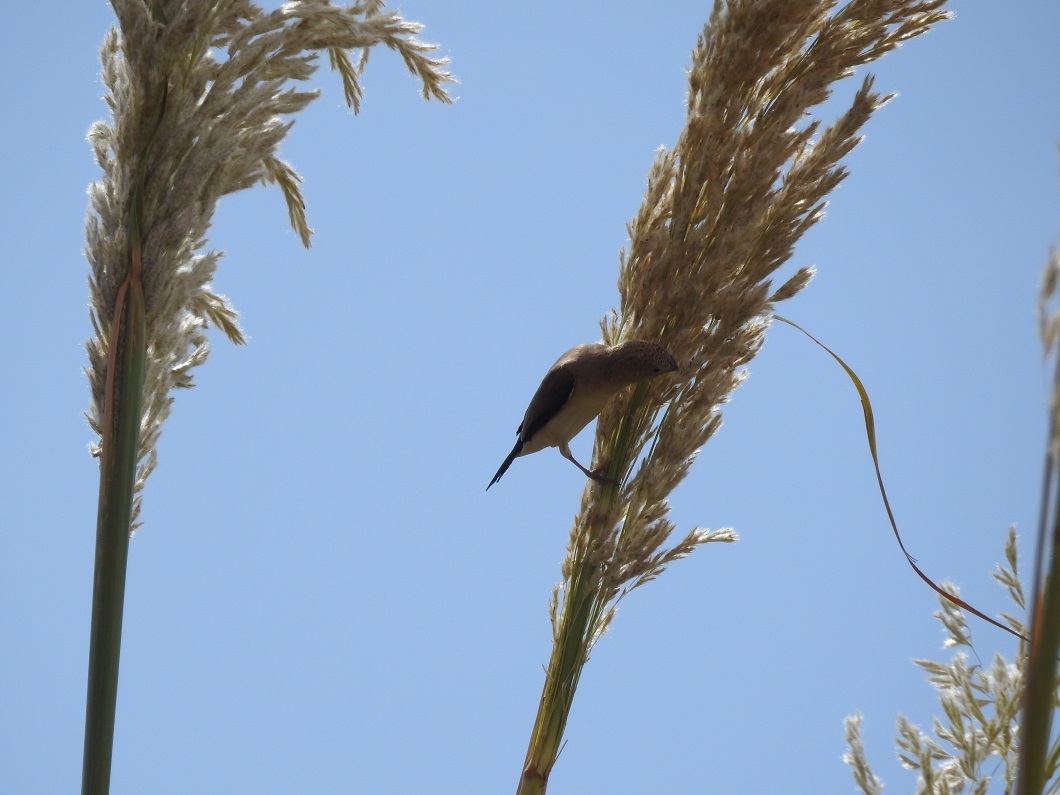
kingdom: Animalia
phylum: Chordata
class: Aves
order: Passeriformes
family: Estrildidae
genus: Euodice
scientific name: Euodice cantans
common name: African silverbill
